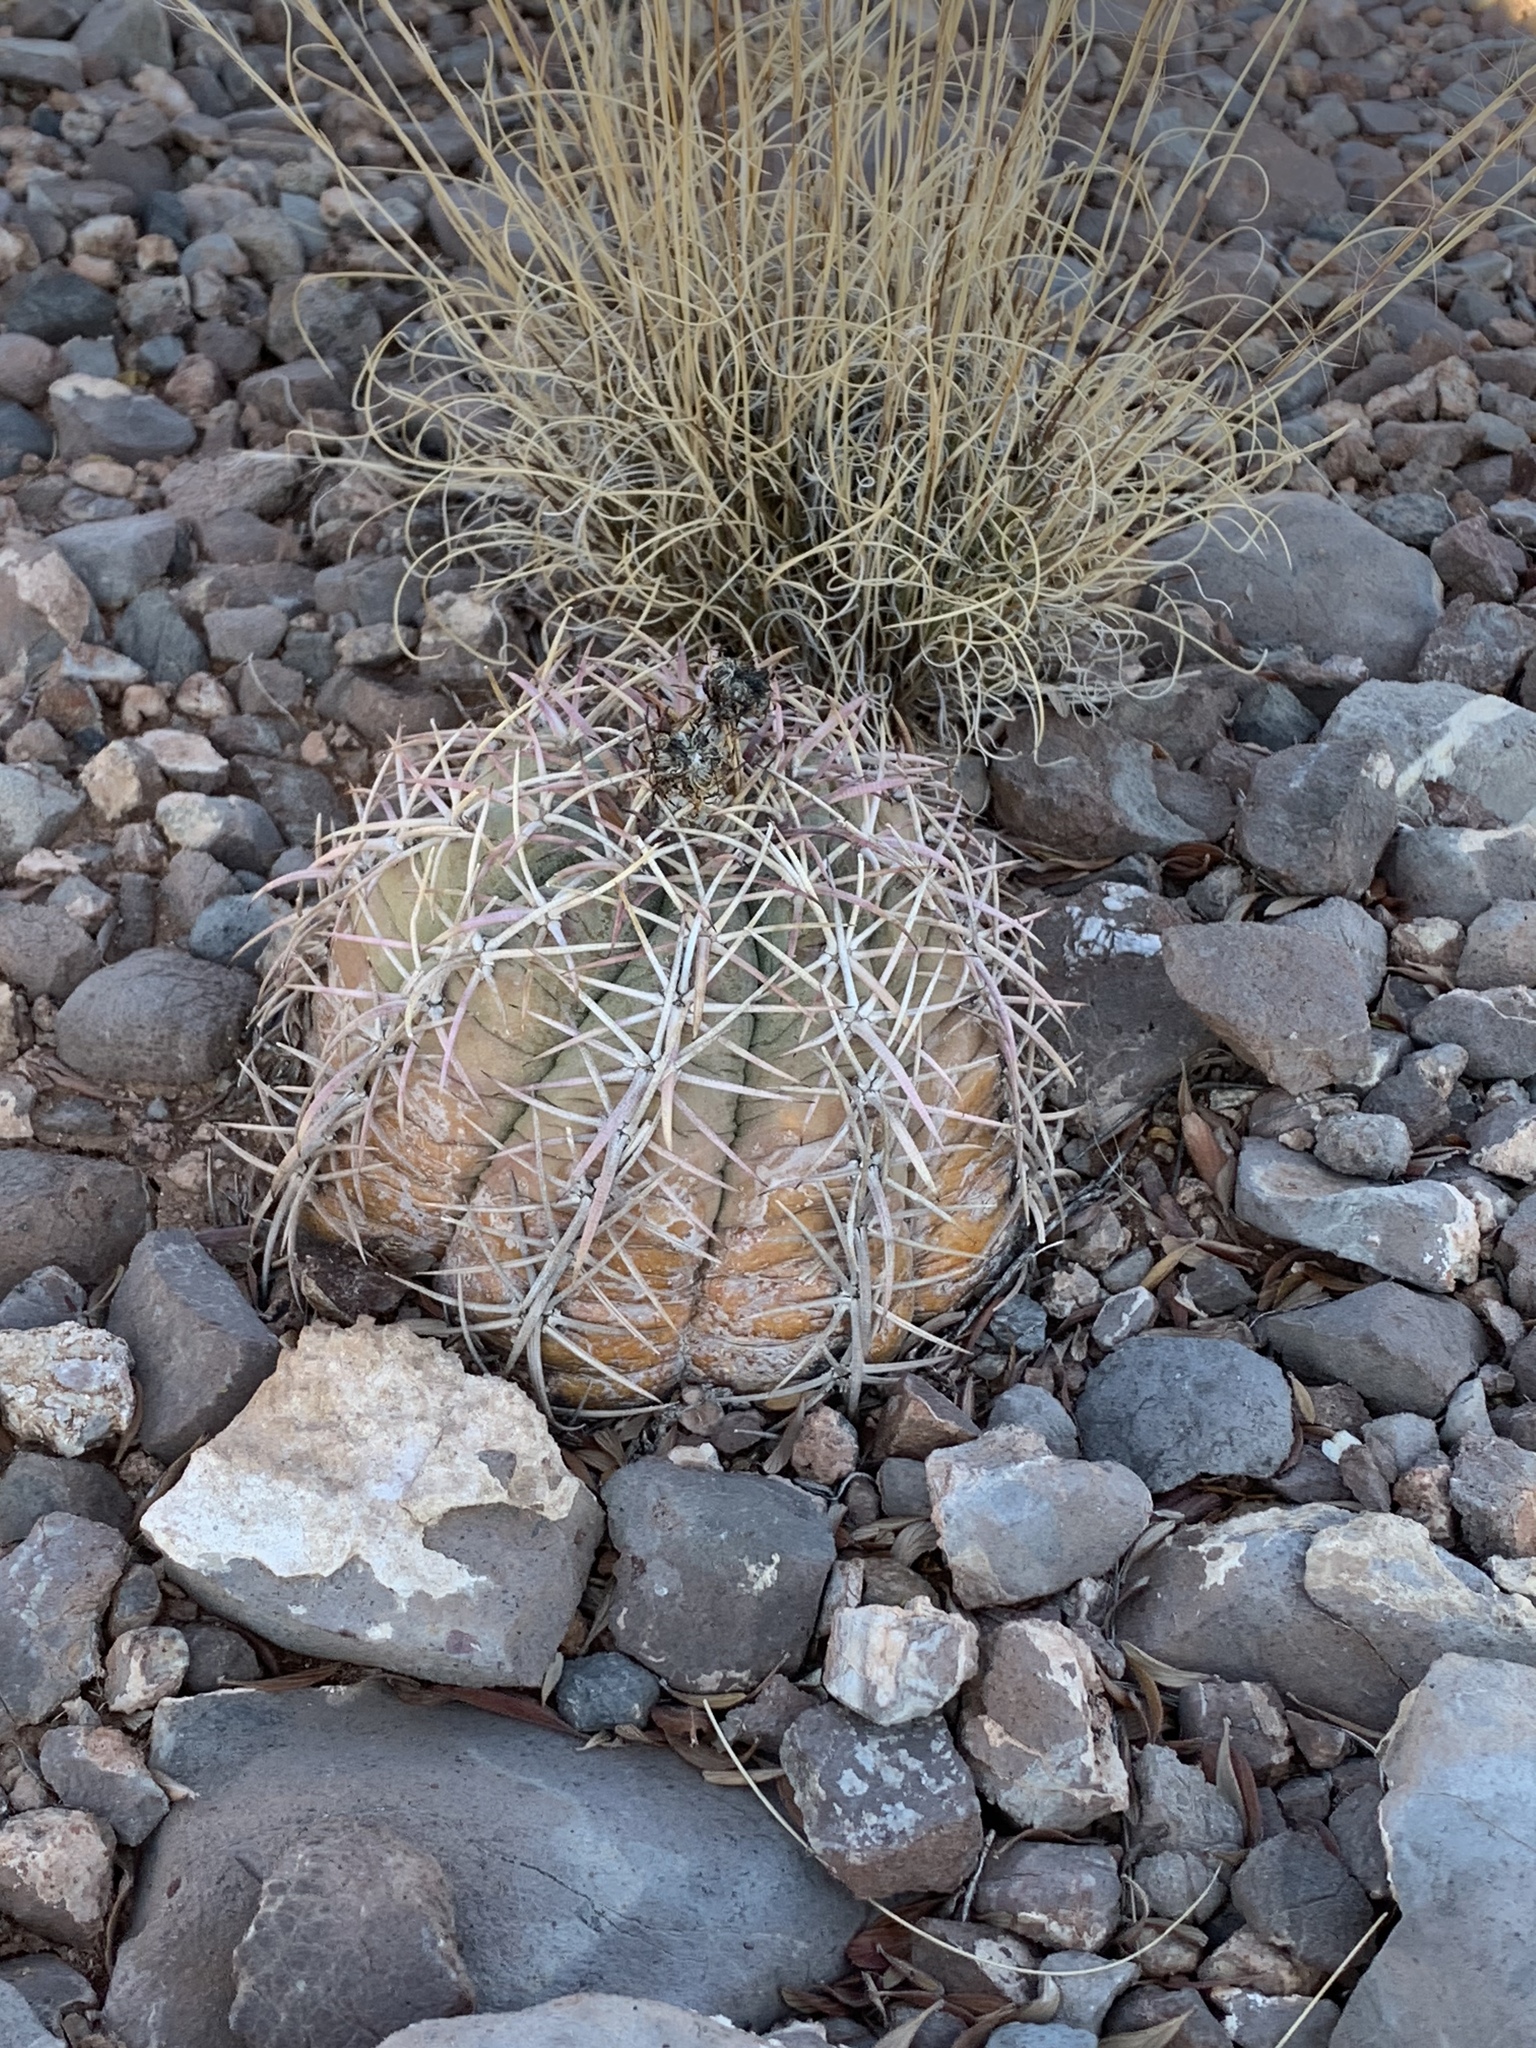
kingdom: Plantae
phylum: Tracheophyta
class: Magnoliopsida
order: Caryophyllales
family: Cactaceae
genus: Echinocactus
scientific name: Echinocactus horizonthalonius
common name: Devilshead
